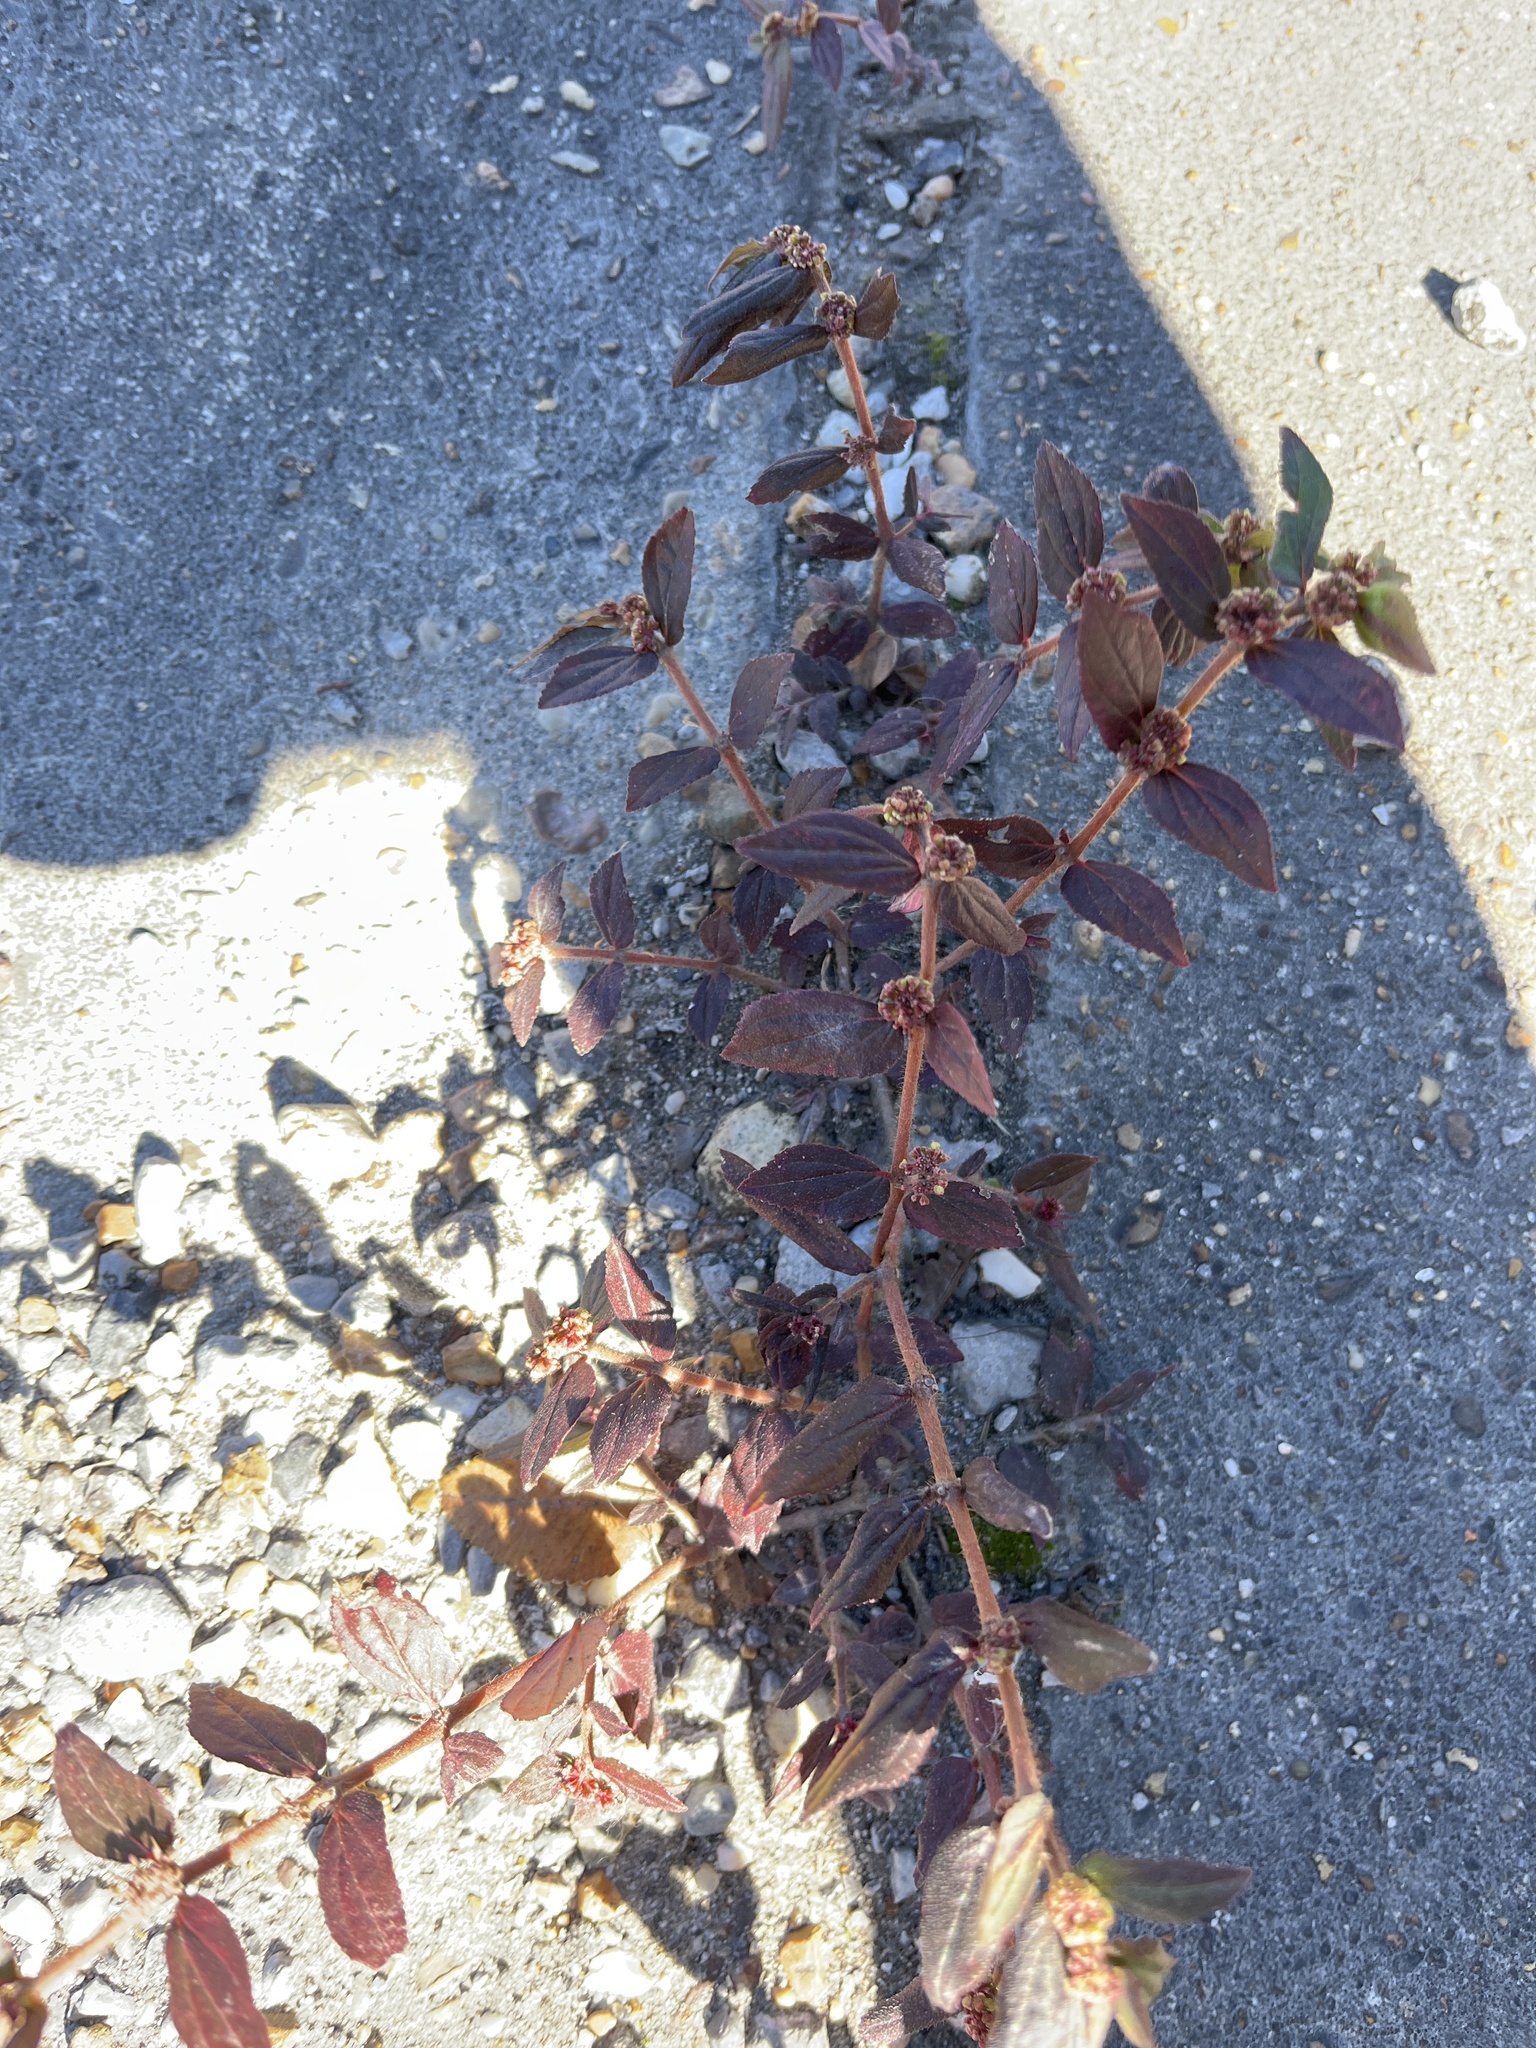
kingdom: Plantae
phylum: Tracheophyta
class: Magnoliopsida
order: Malpighiales
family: Euphorbiaceae
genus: Euphorbia
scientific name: Euphorbia hirta
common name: Pillpod sandmat
